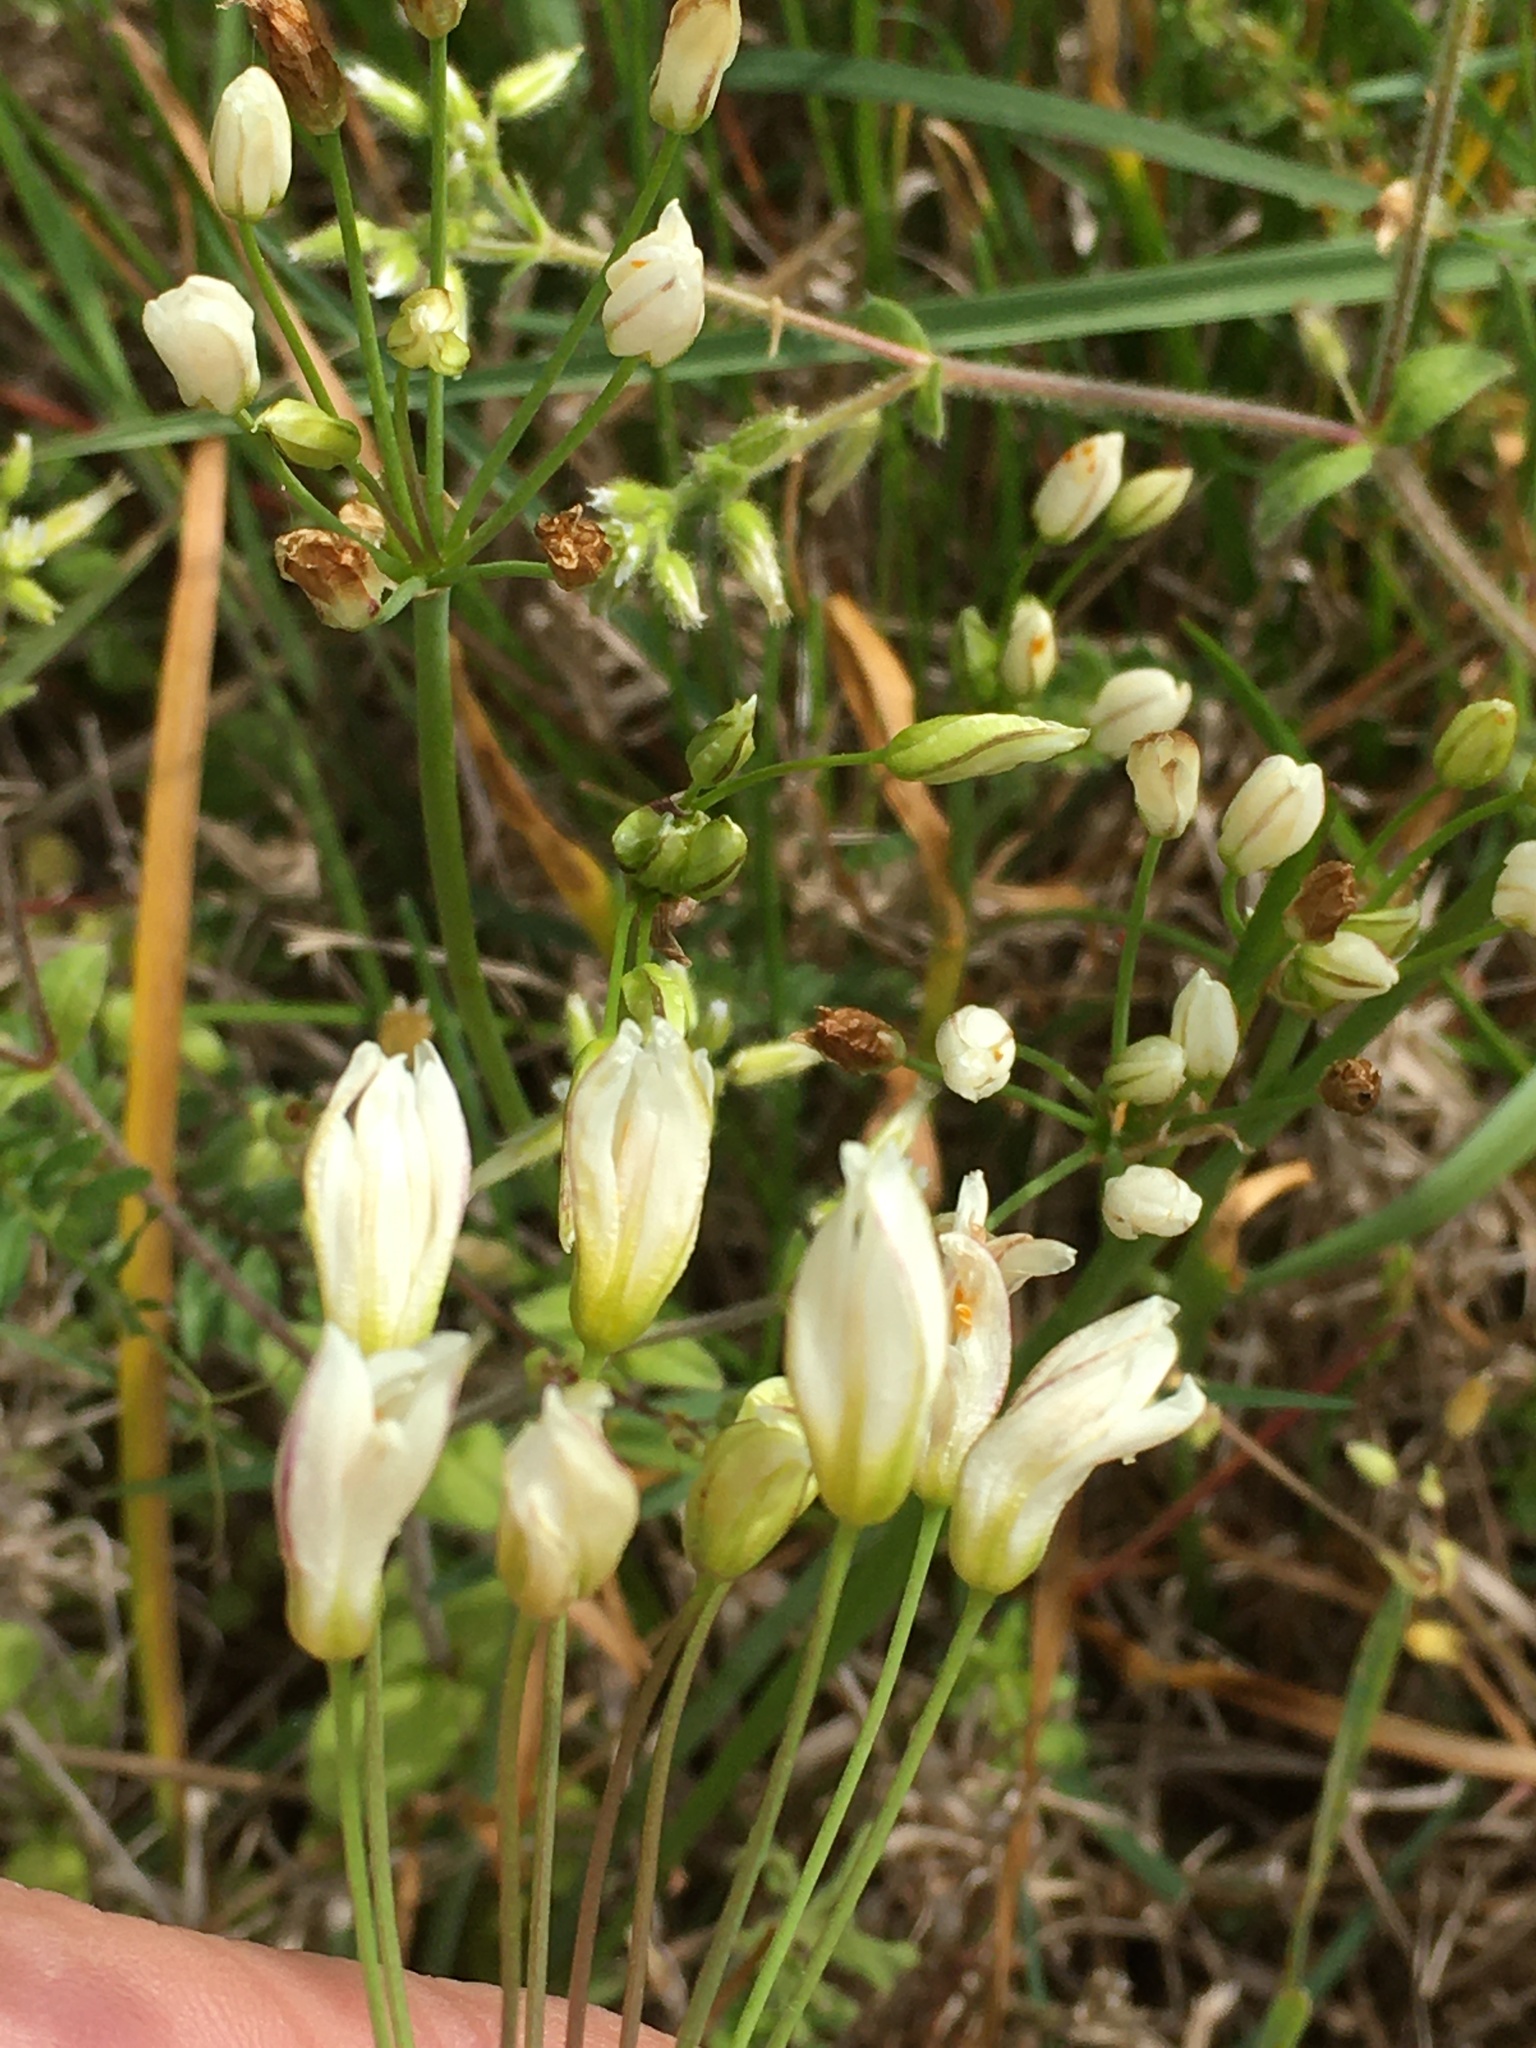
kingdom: Plantae
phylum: Tracheophyta
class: Liliopsida
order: Asparagales
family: Amaryllidaceae
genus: Nothoscordum
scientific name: Nothoscordum bivalve
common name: Crow-poison
